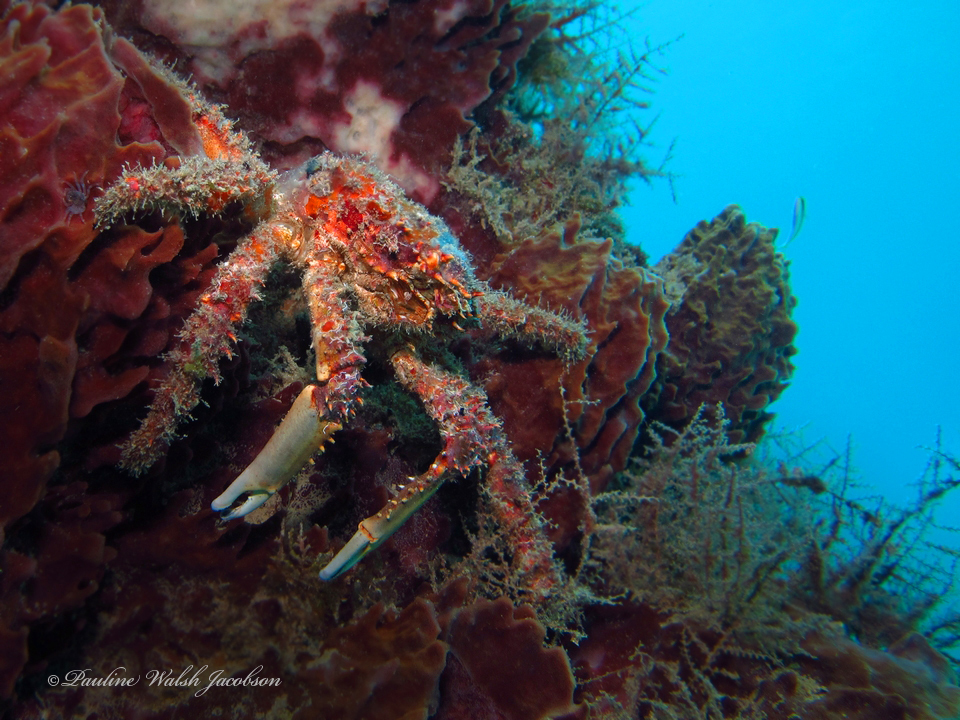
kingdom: Animalia
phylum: Arthropoda
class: Malacostraca
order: Decapoda
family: Mithracidae
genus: Amphithrax
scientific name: Amphithrax pilosus
